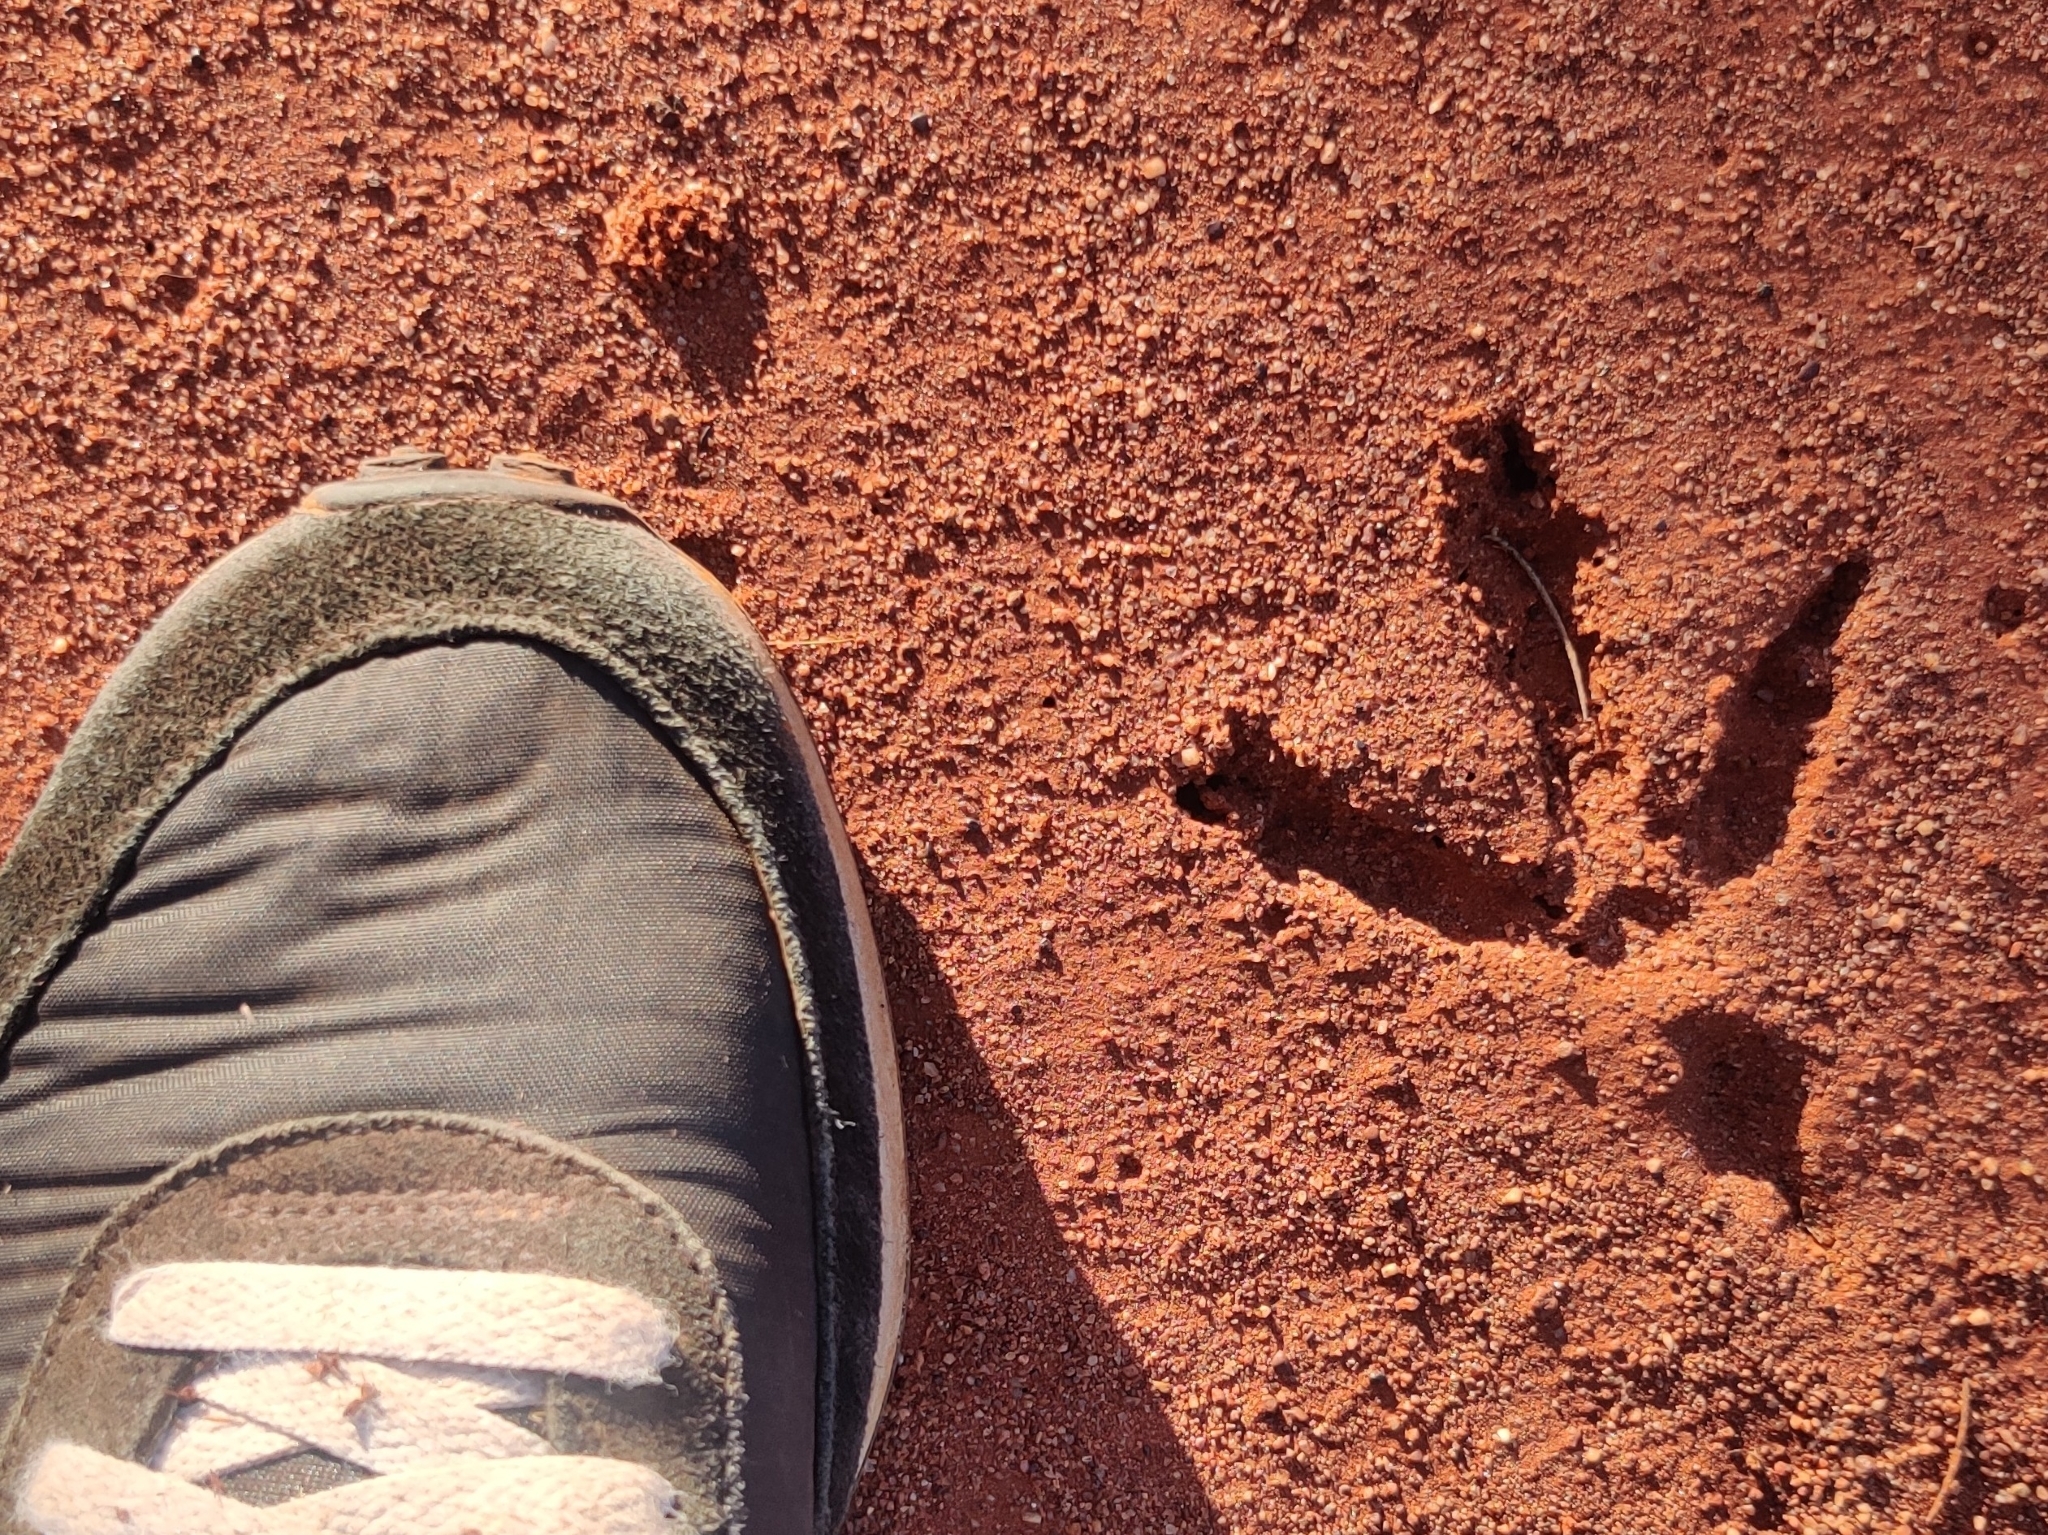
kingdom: Animalia
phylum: Chordata
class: Aves
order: Galliformes
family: Megapodiidae
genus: Leipoa
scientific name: Leipoa ocellata
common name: Malleefowl
